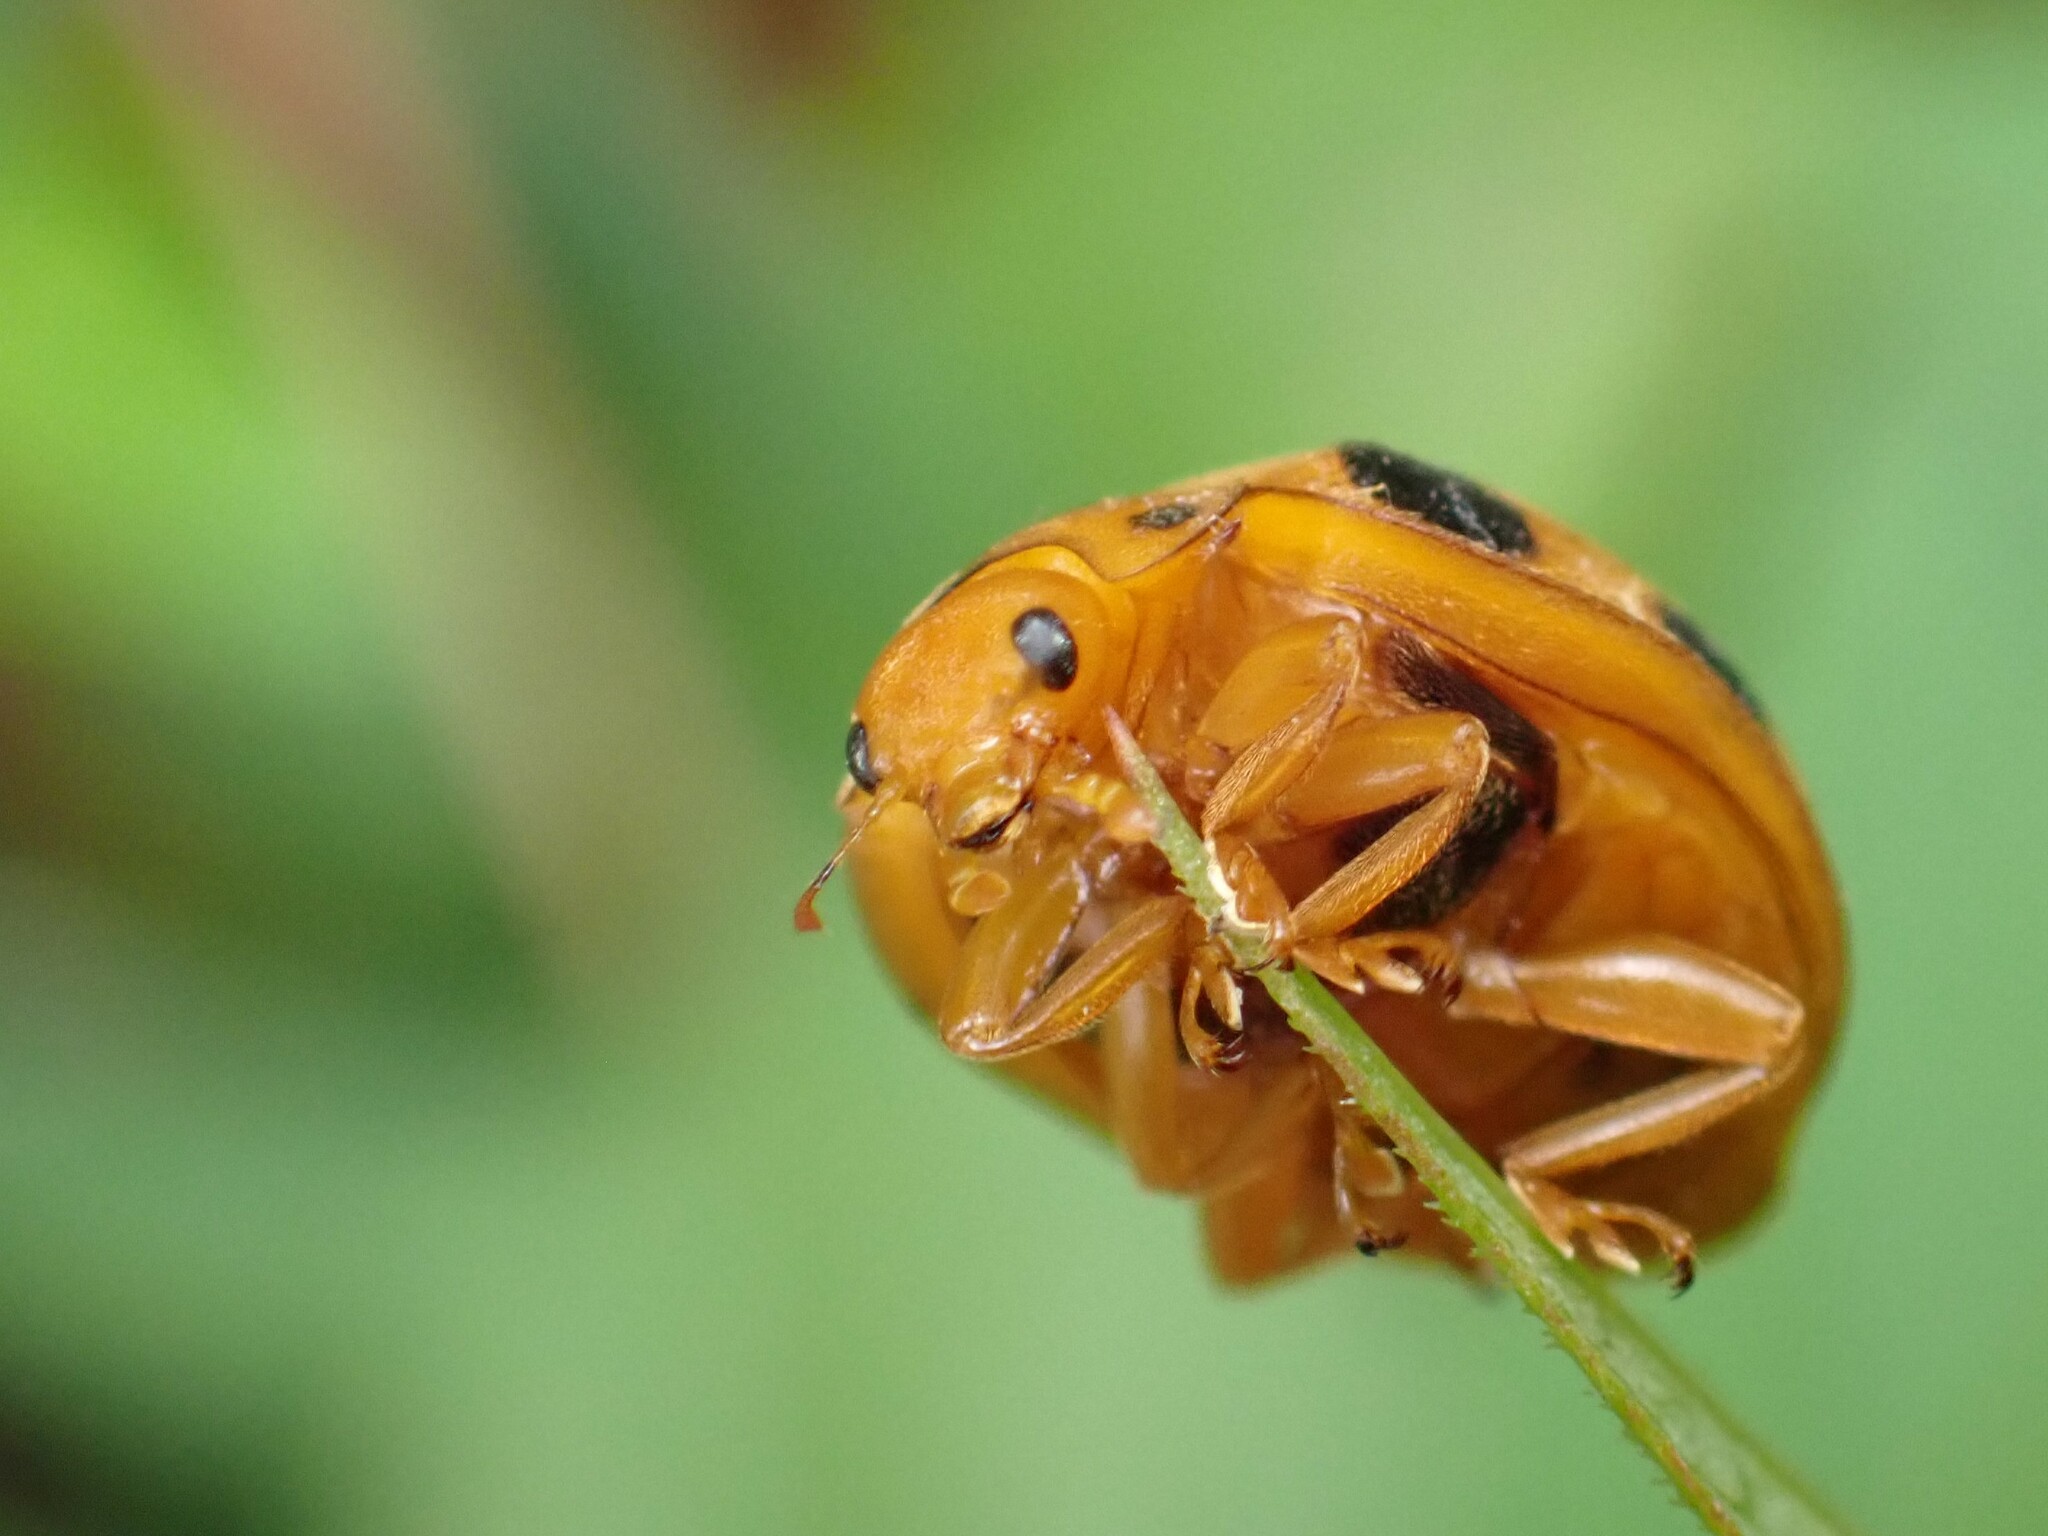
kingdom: Animalia
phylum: Arthropoda
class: Insecta
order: Coleoptera
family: Coccinellidae
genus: Epilachna
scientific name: Epilachna borealis
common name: Squash beetle
